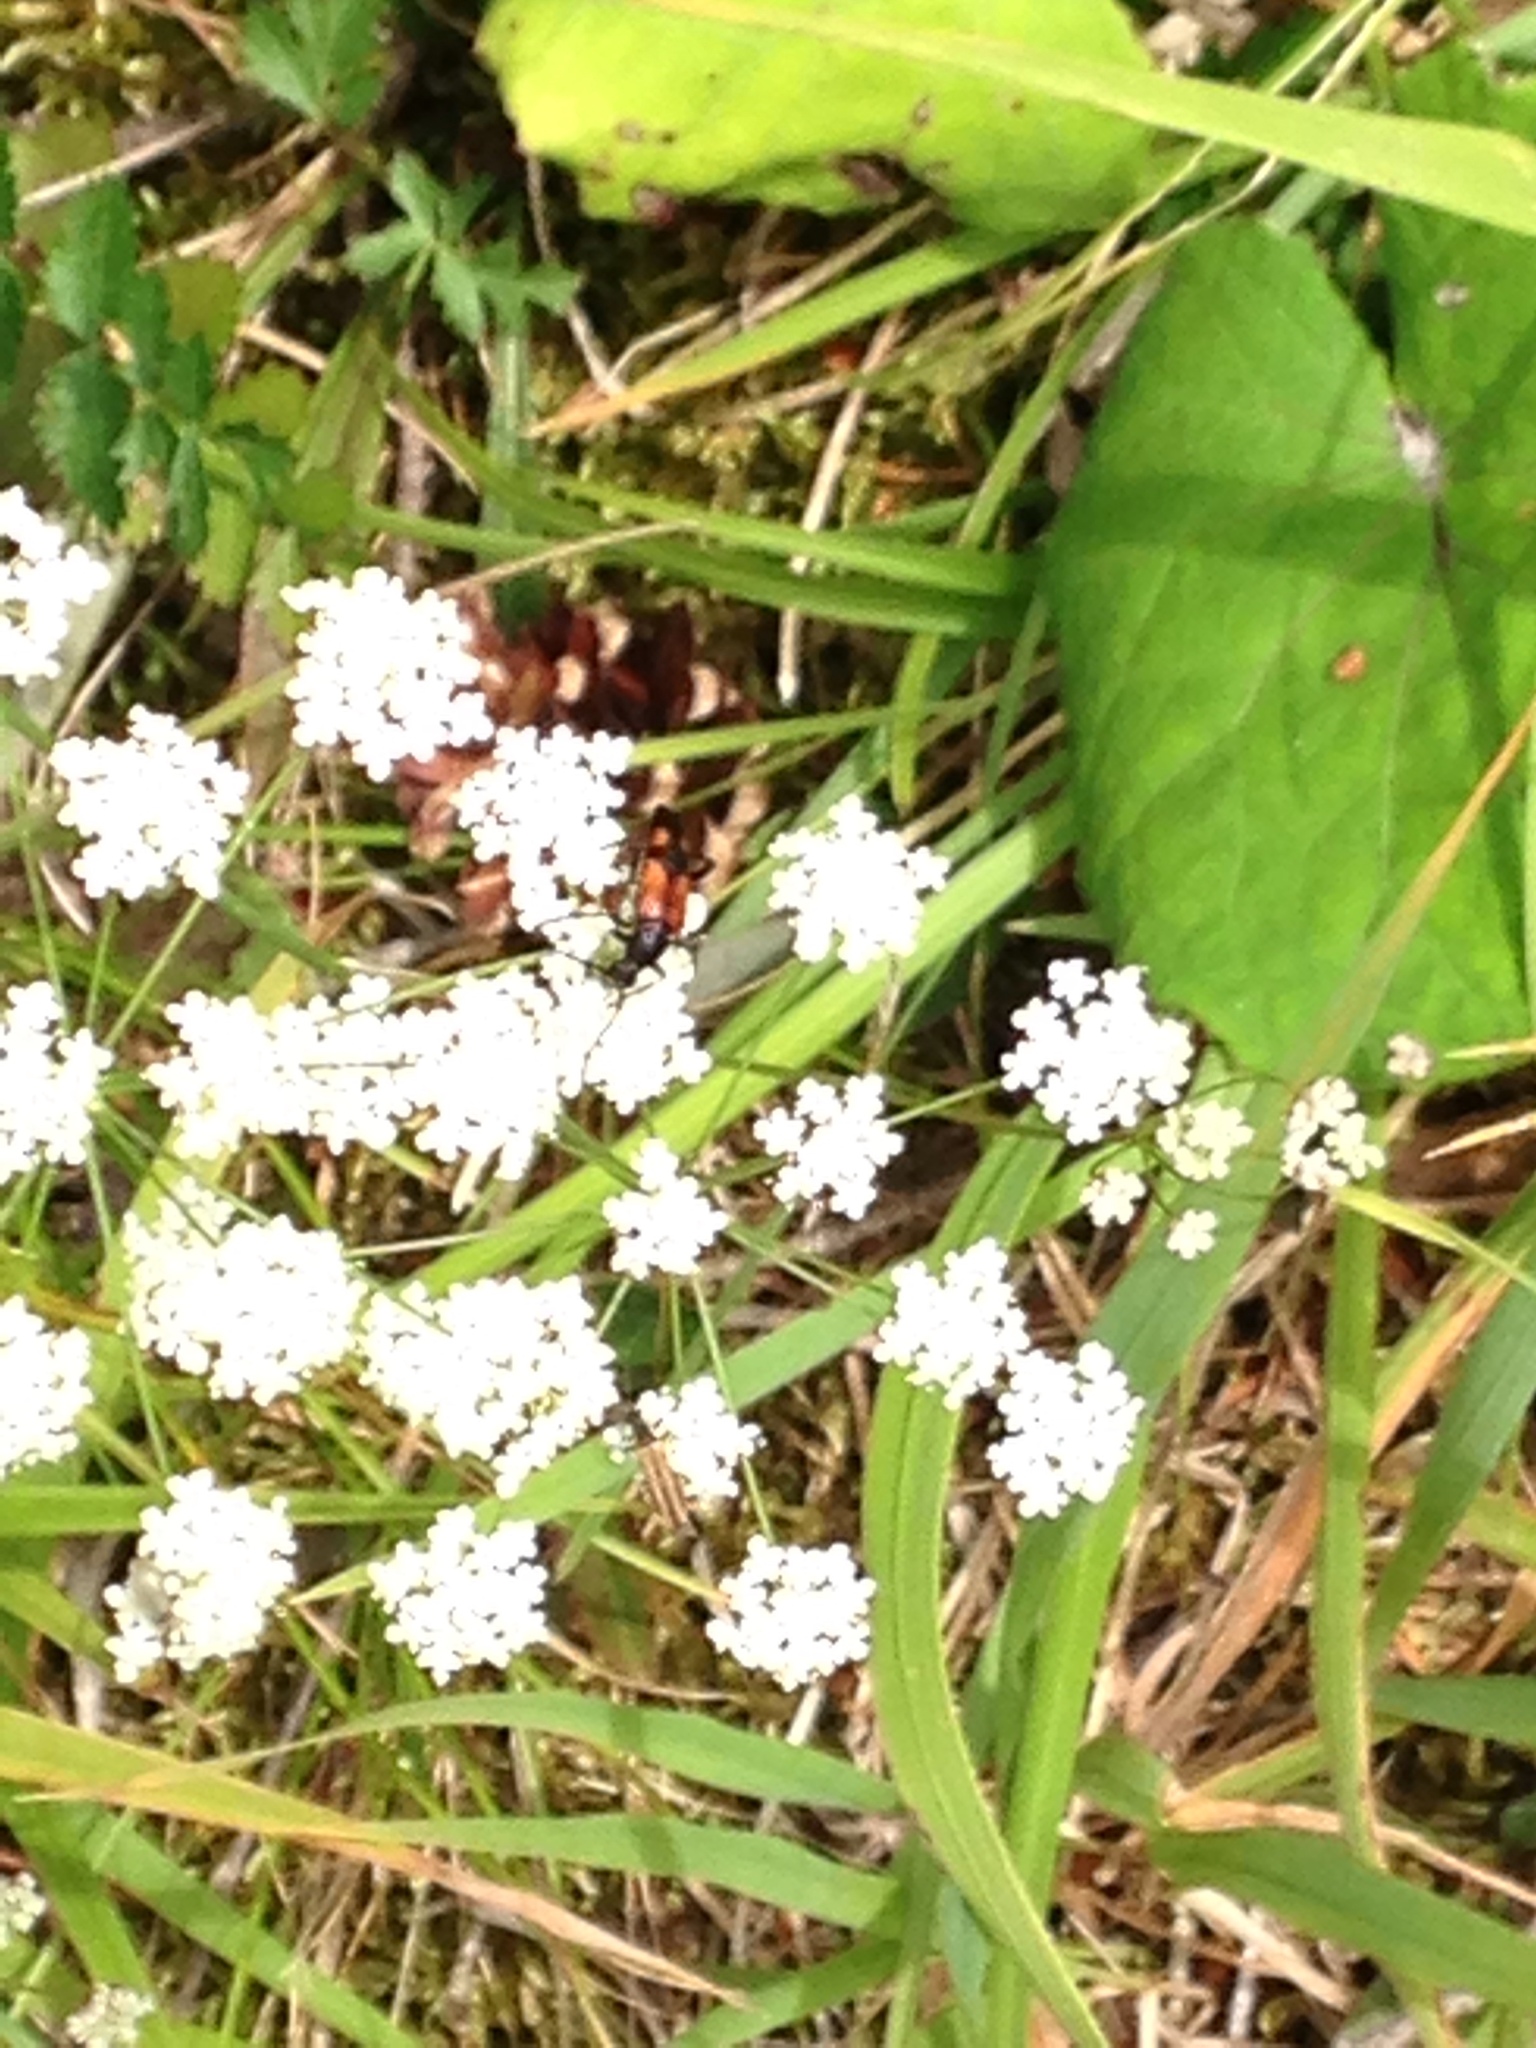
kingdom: Animalia
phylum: Arthropoda
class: Insecta
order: Coleoptera
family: Cerambycidae
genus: Stenurella
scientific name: Stenurella bifasciata
